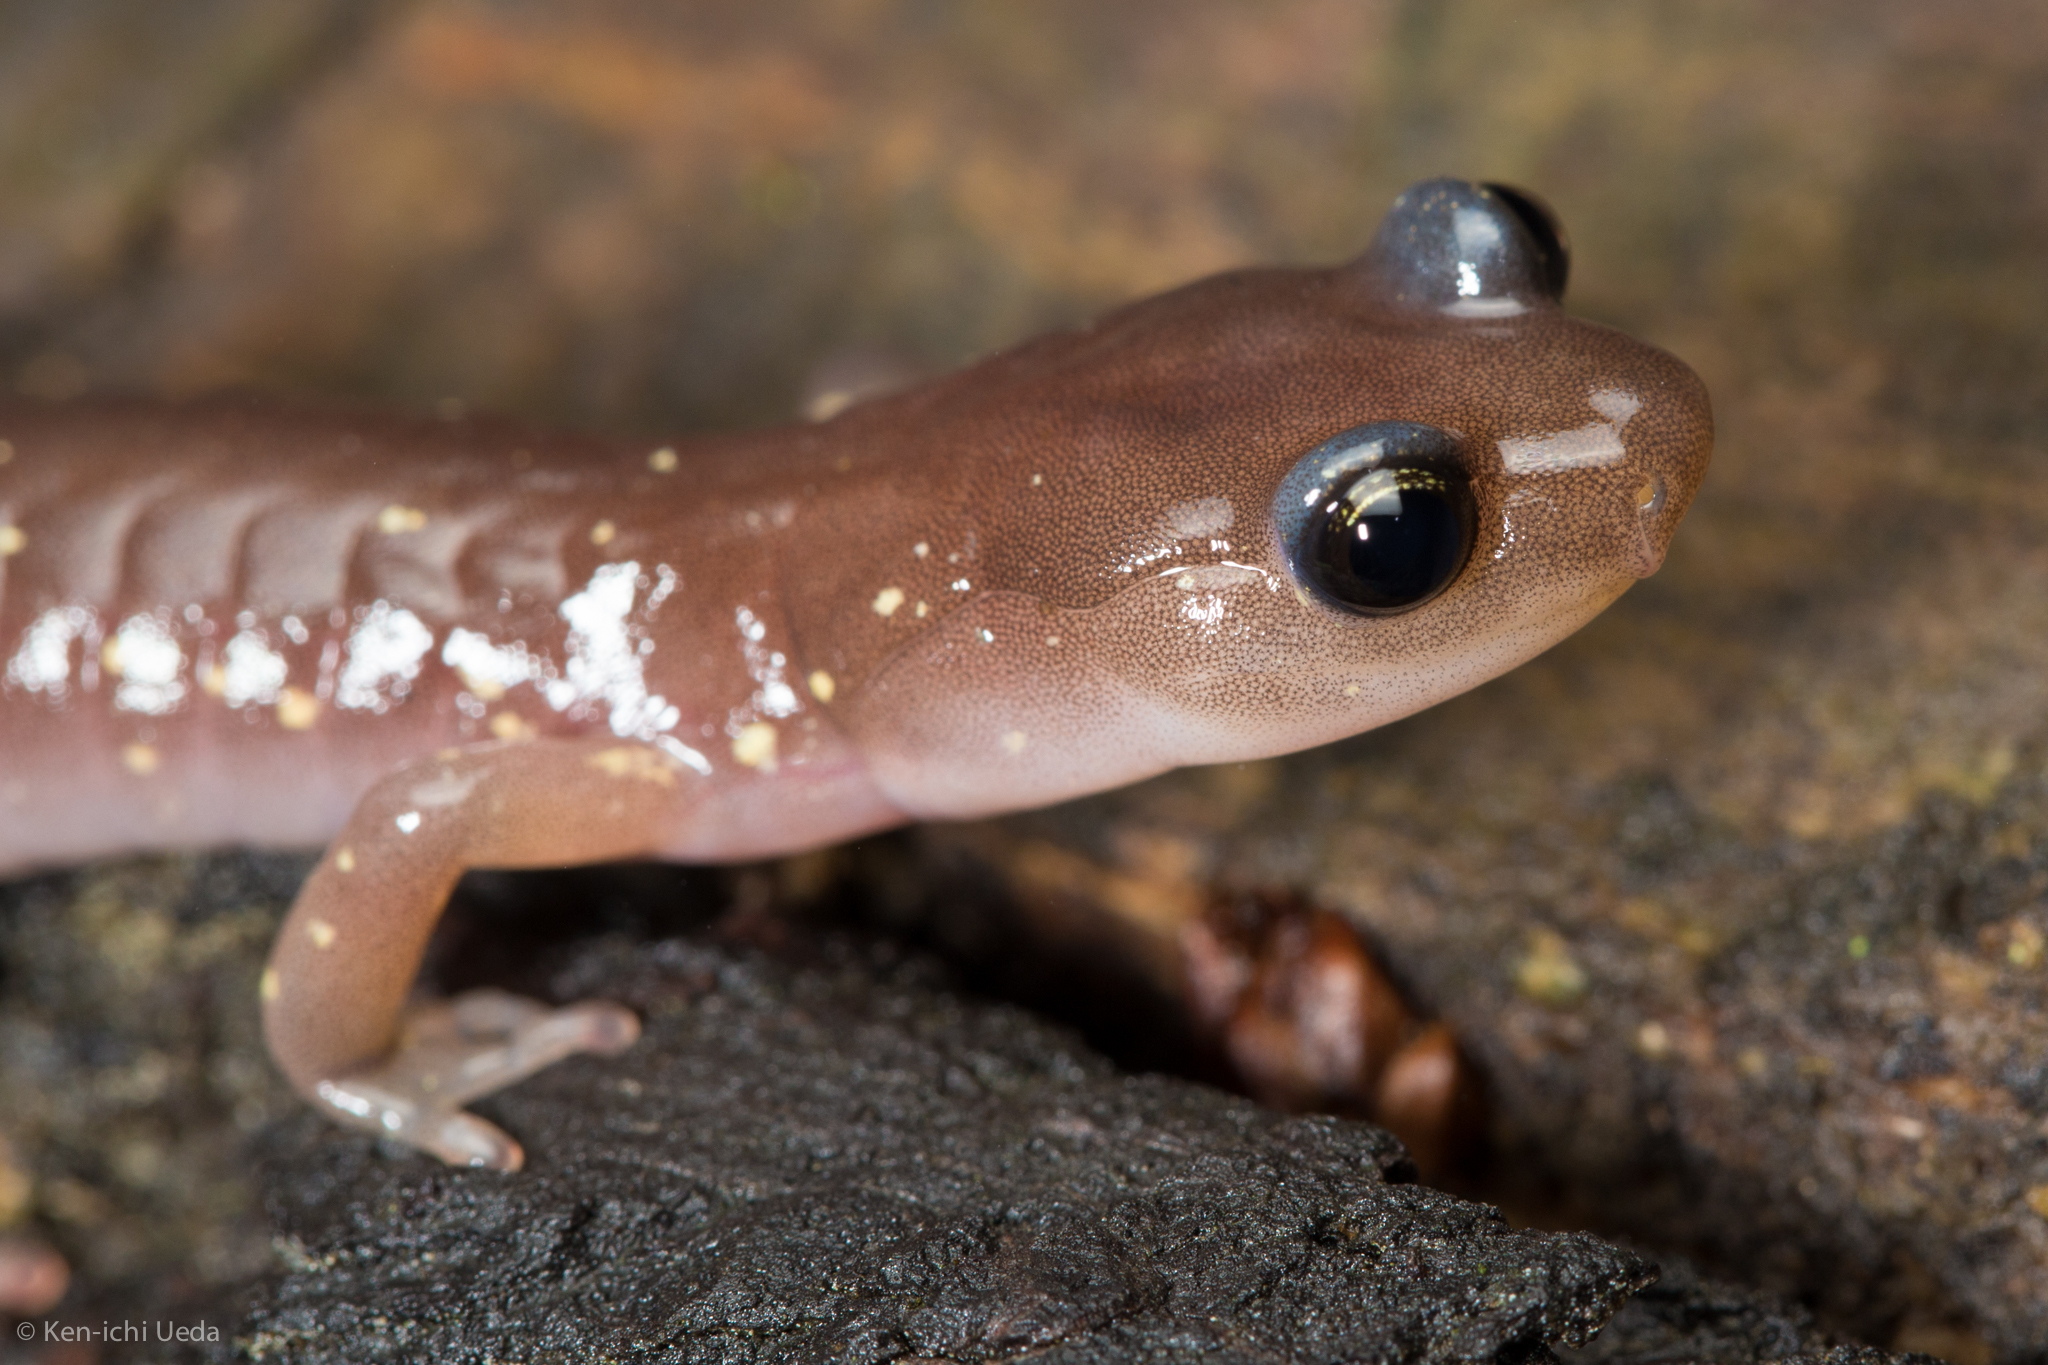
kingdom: Animalia
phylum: Chordata
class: Amphibia
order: Caudata
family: Plethodontidae
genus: Aneides
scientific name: Aneides lugubris
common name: Arboreal salamander
